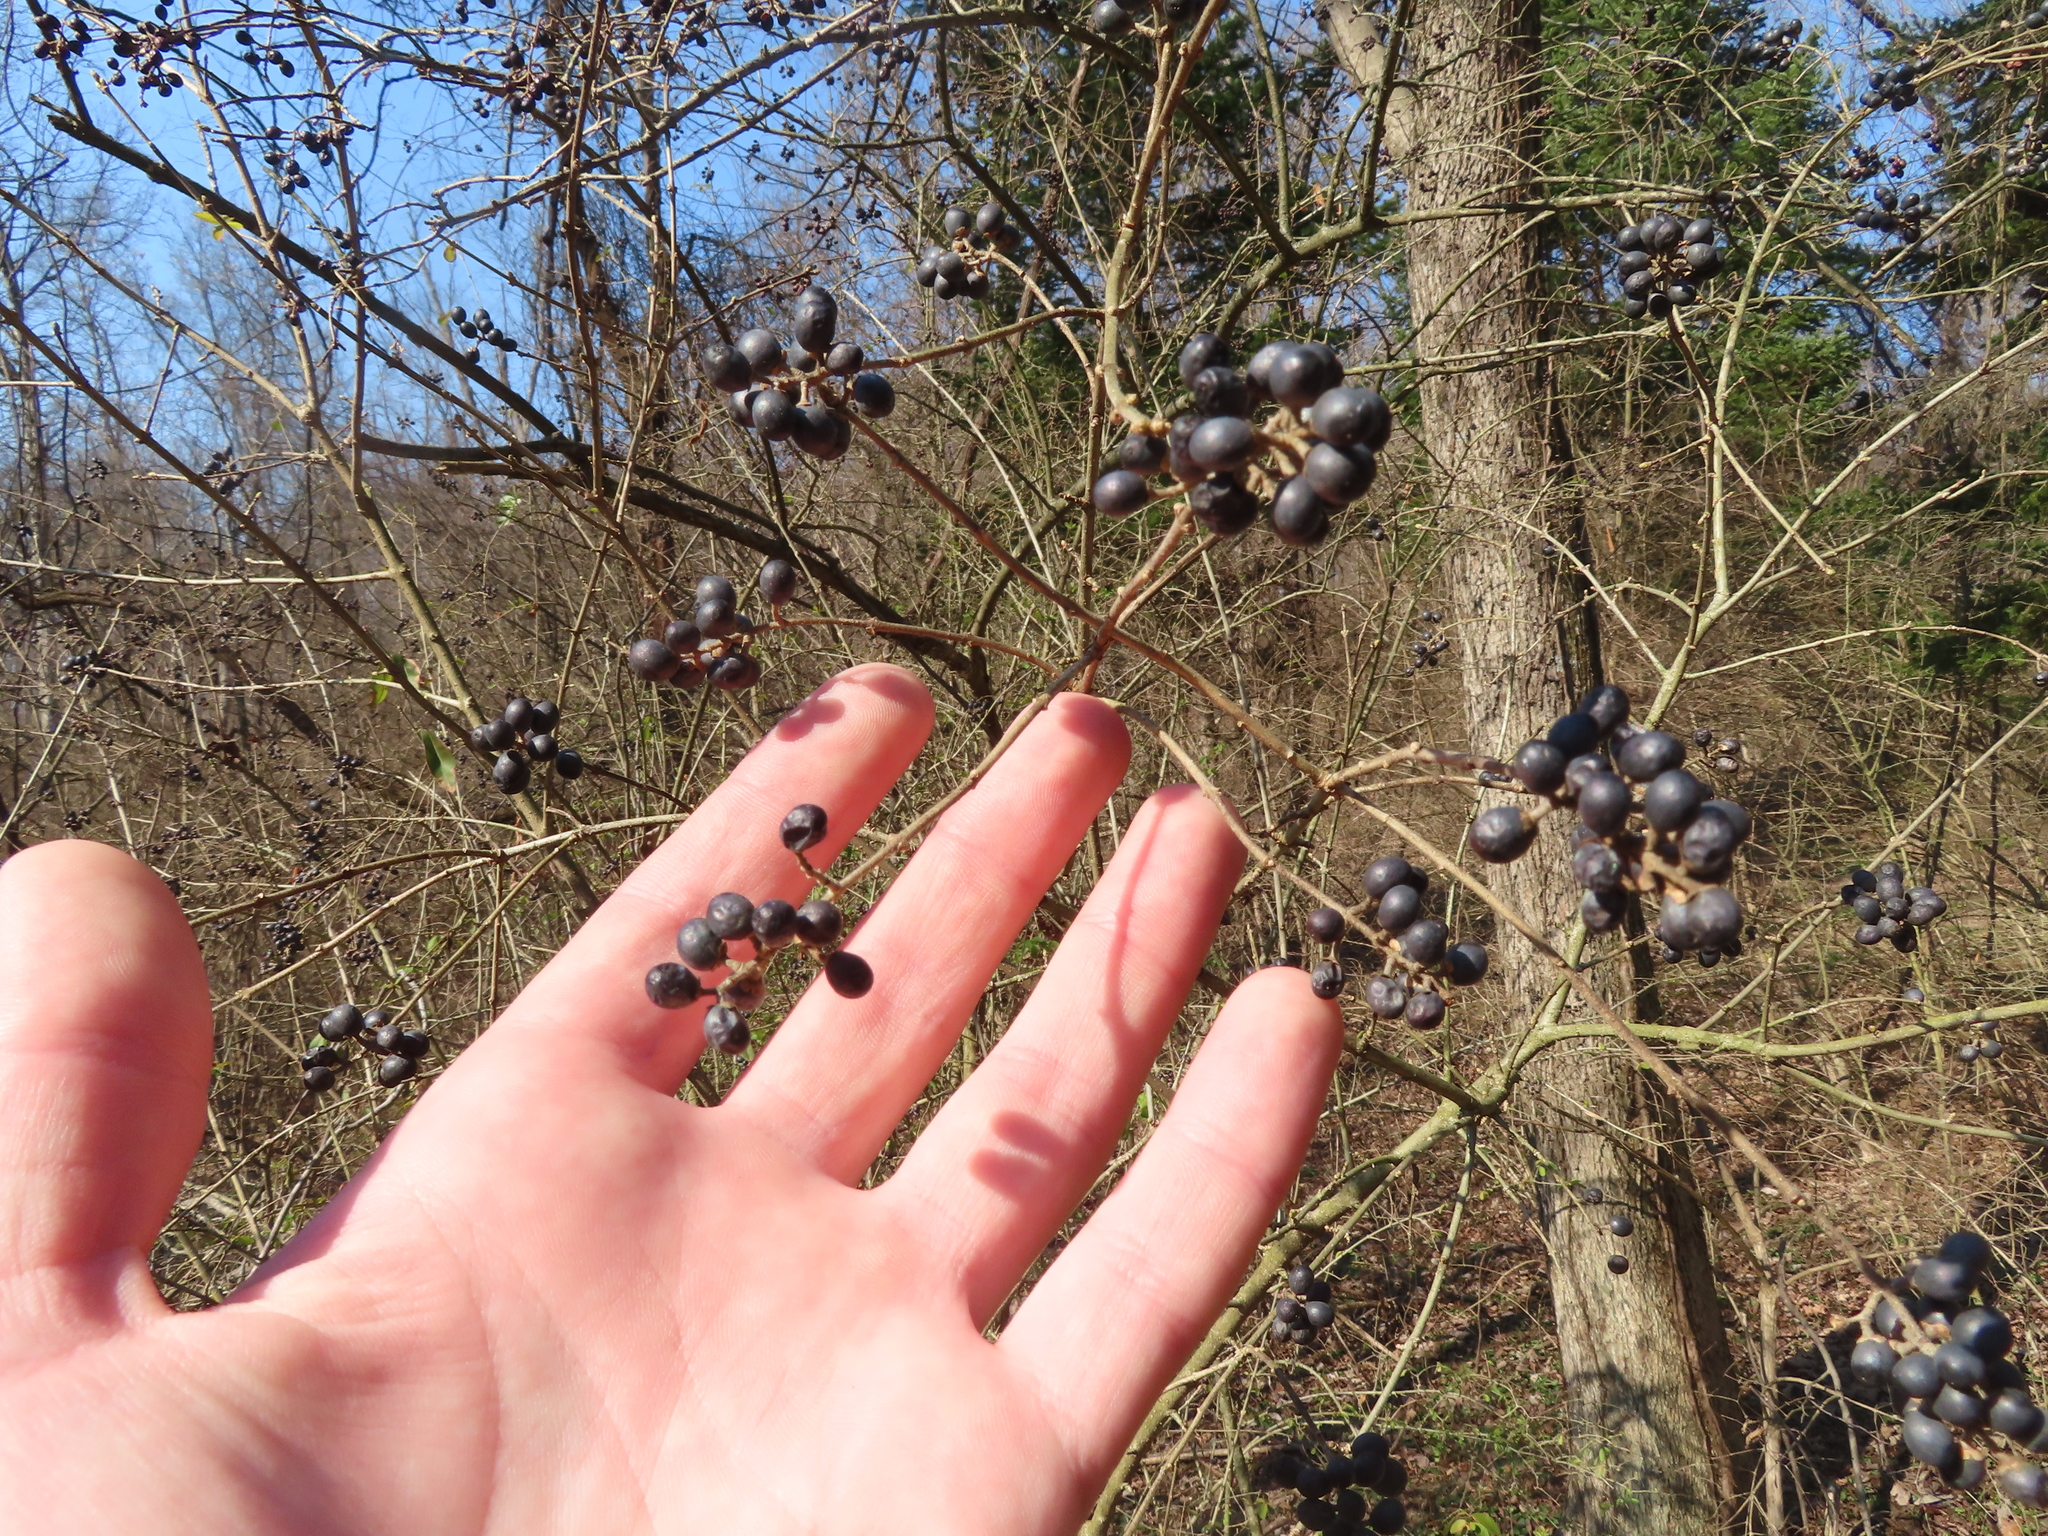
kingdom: Plantae
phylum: Tracheophyta
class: Magnoliopsida
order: Lamiales
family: Oleaceae
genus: Ligustrum
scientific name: Ligustrum obtusifolium
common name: Border privet
